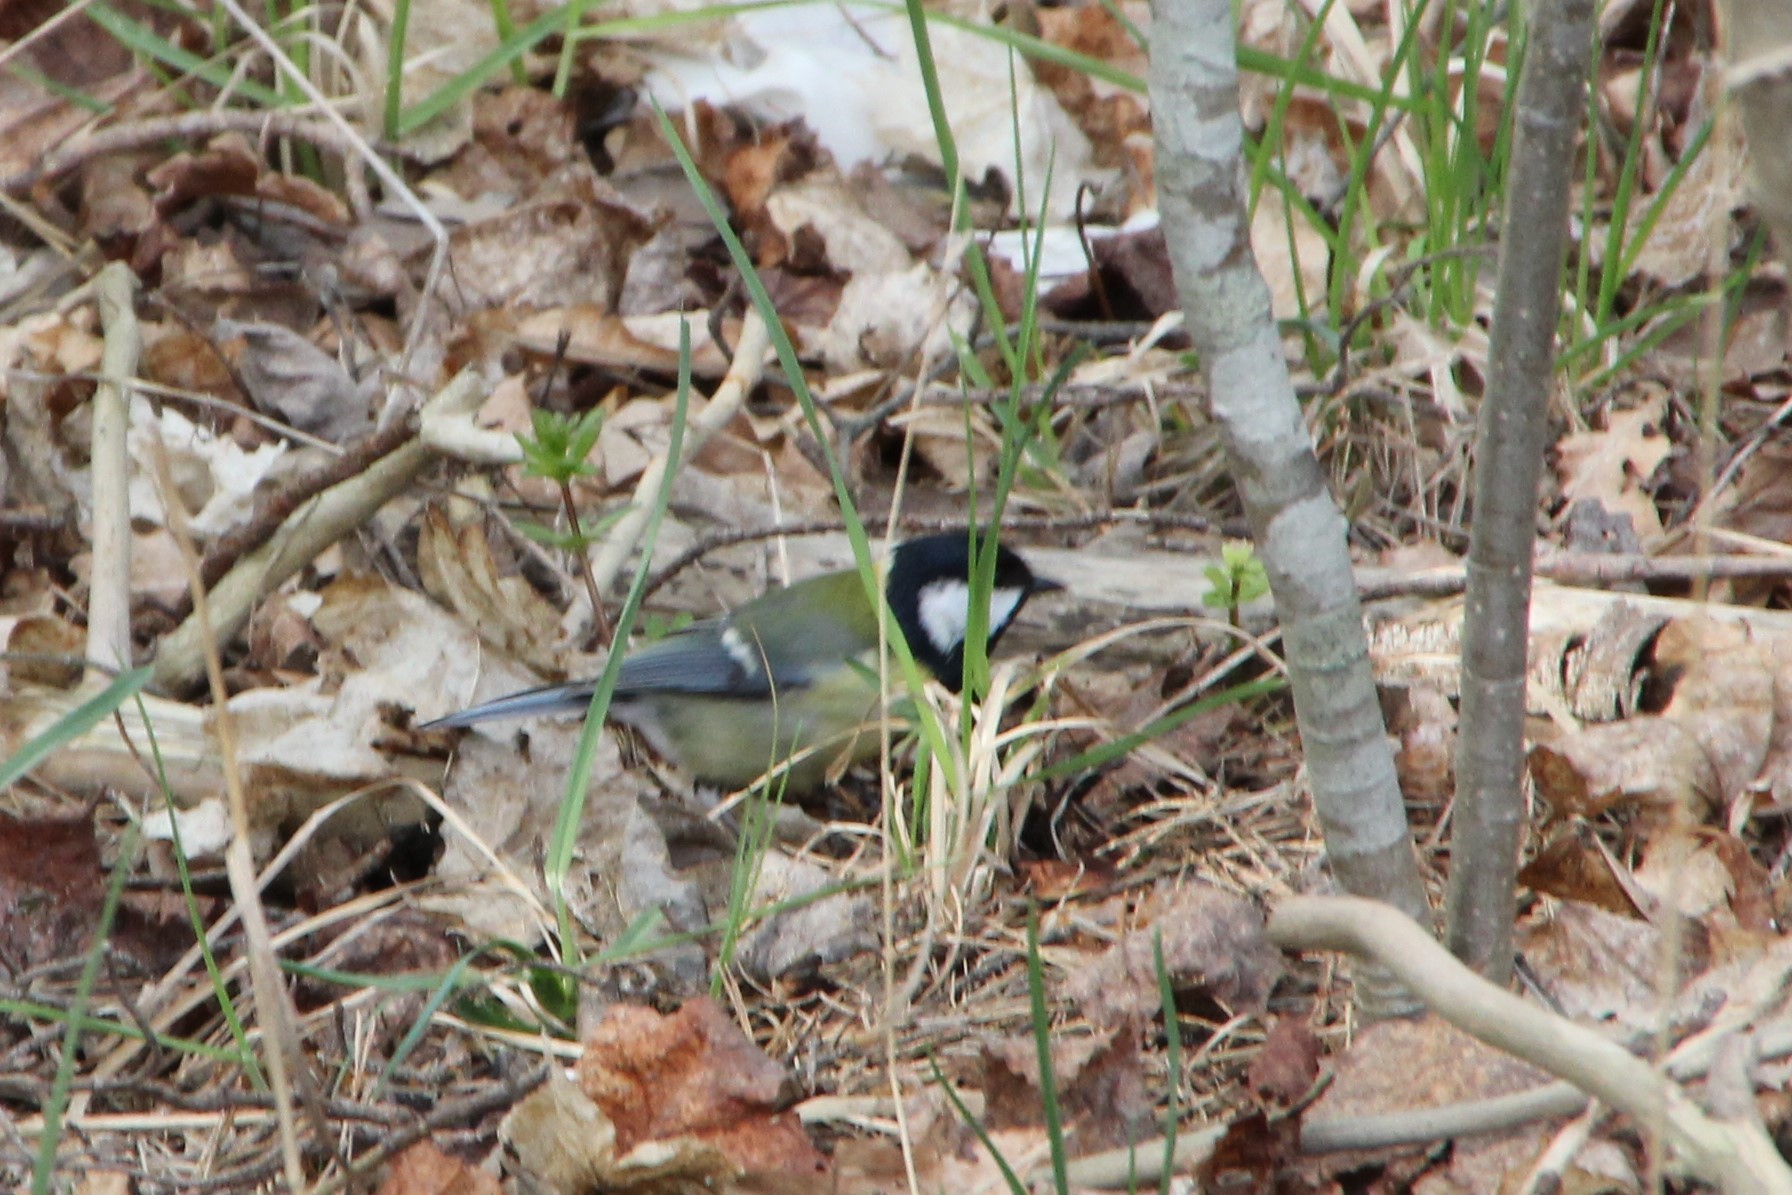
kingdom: Animalia
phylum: Chordata
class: Aves
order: Passeriformes
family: Paridae
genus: Parus
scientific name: Parus major
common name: Great tit
